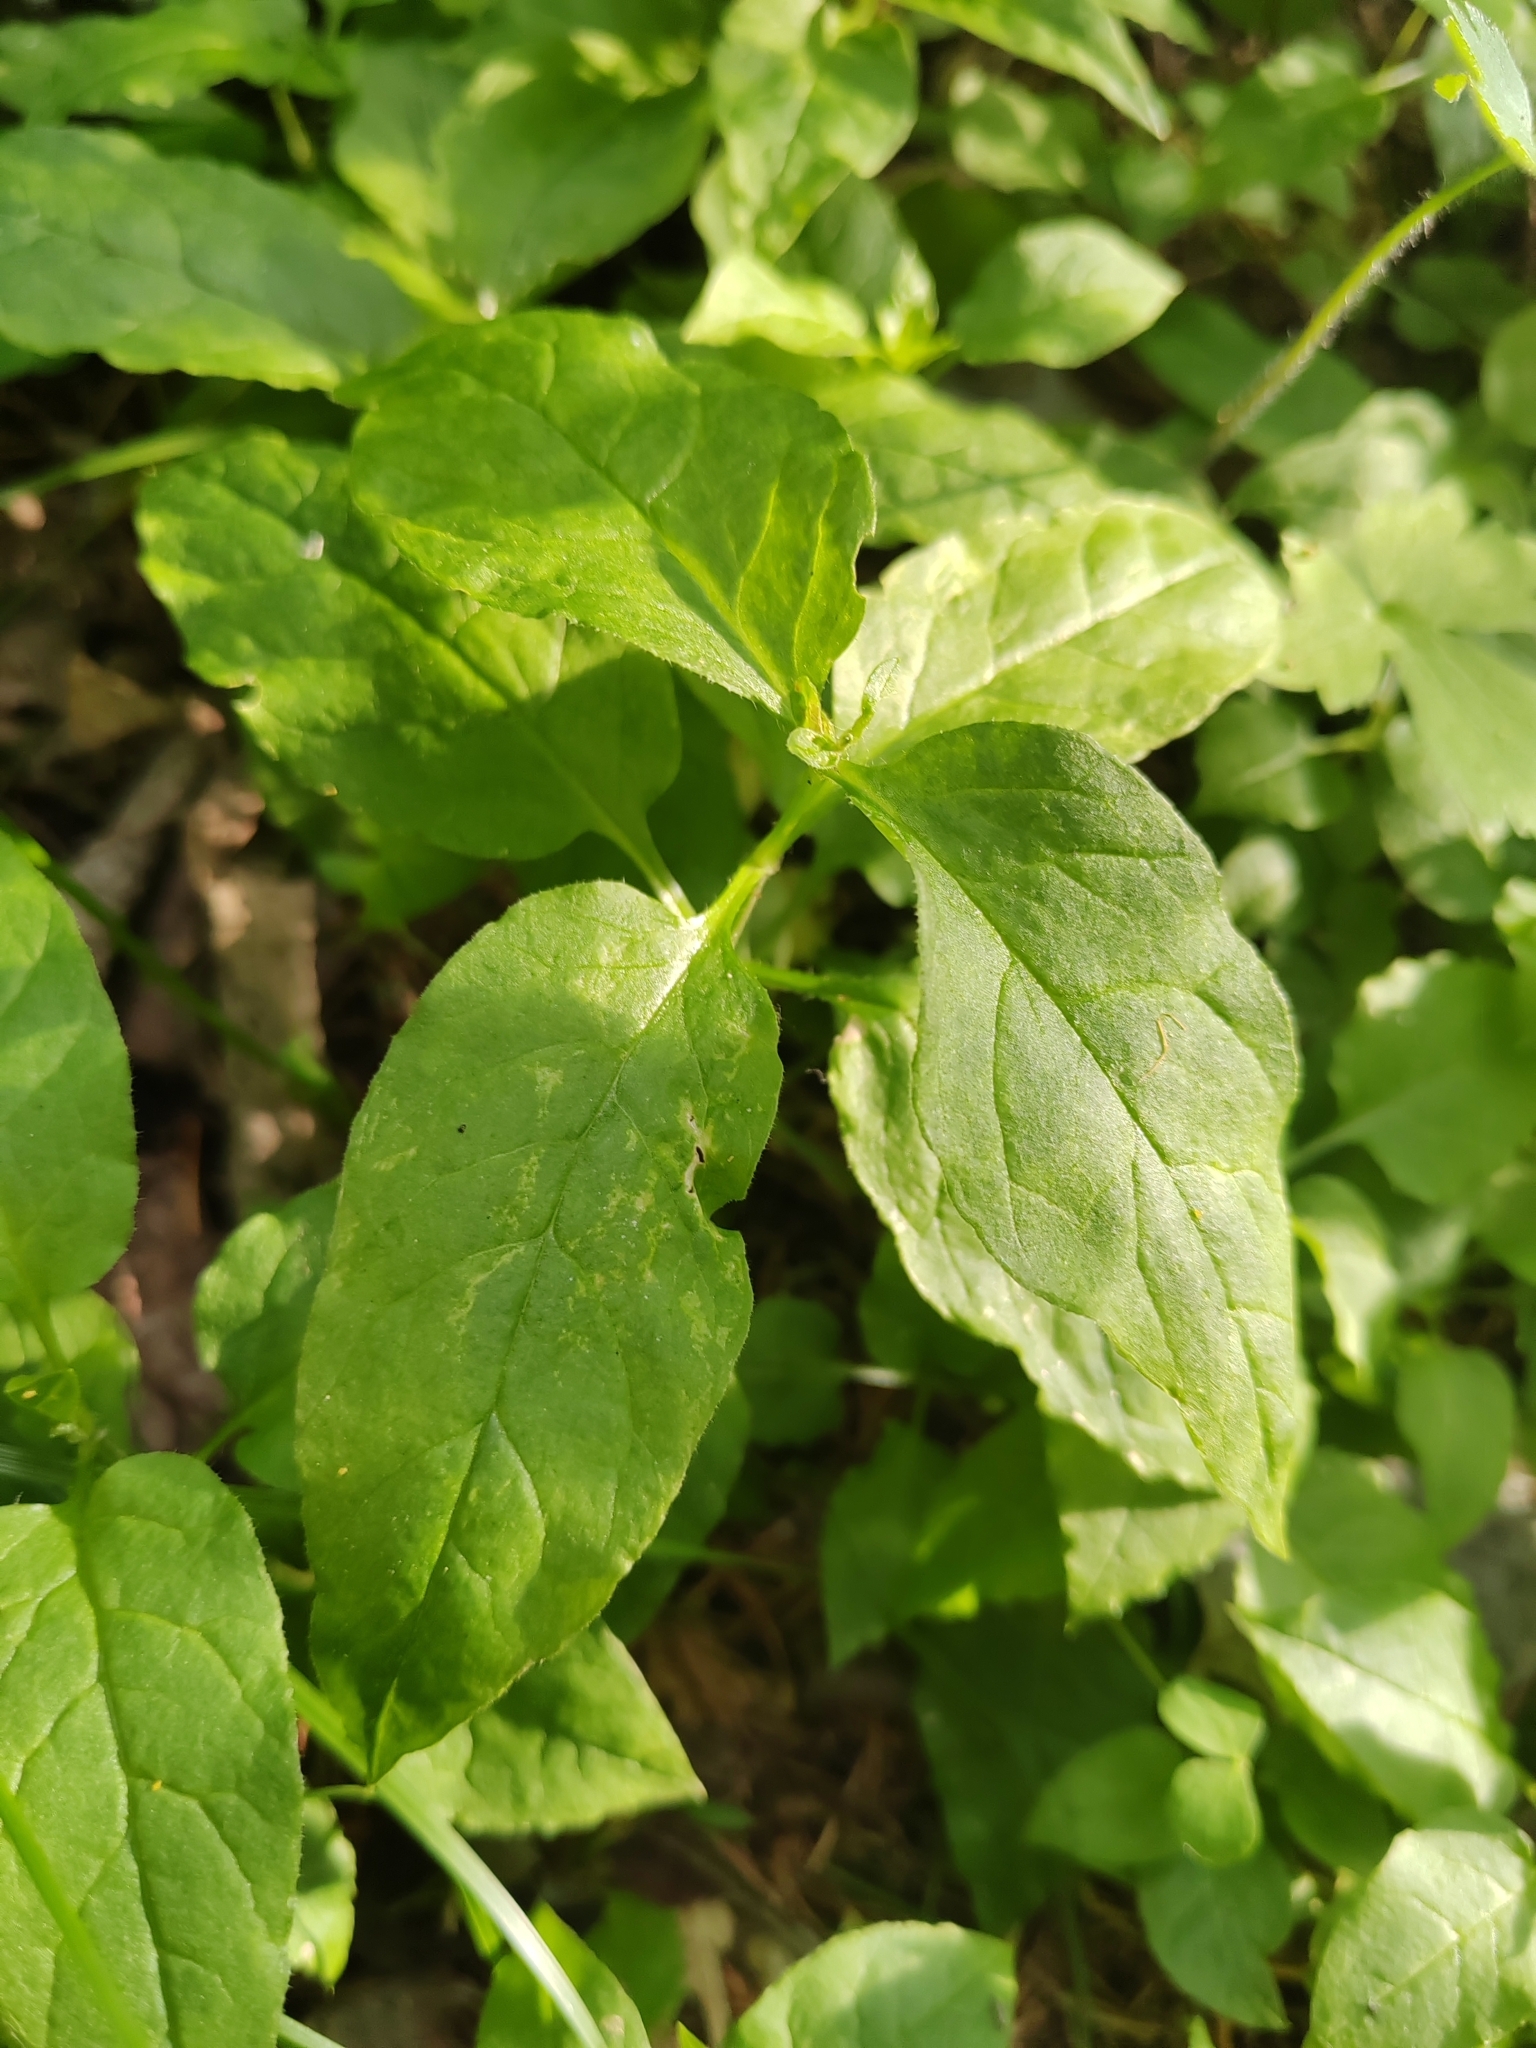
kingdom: Plantae
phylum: Tracheophyta
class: Magnoliopsida
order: Caryophyllales
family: Caryophyllaceae
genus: Stellaria
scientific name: Stellaria bungeana
